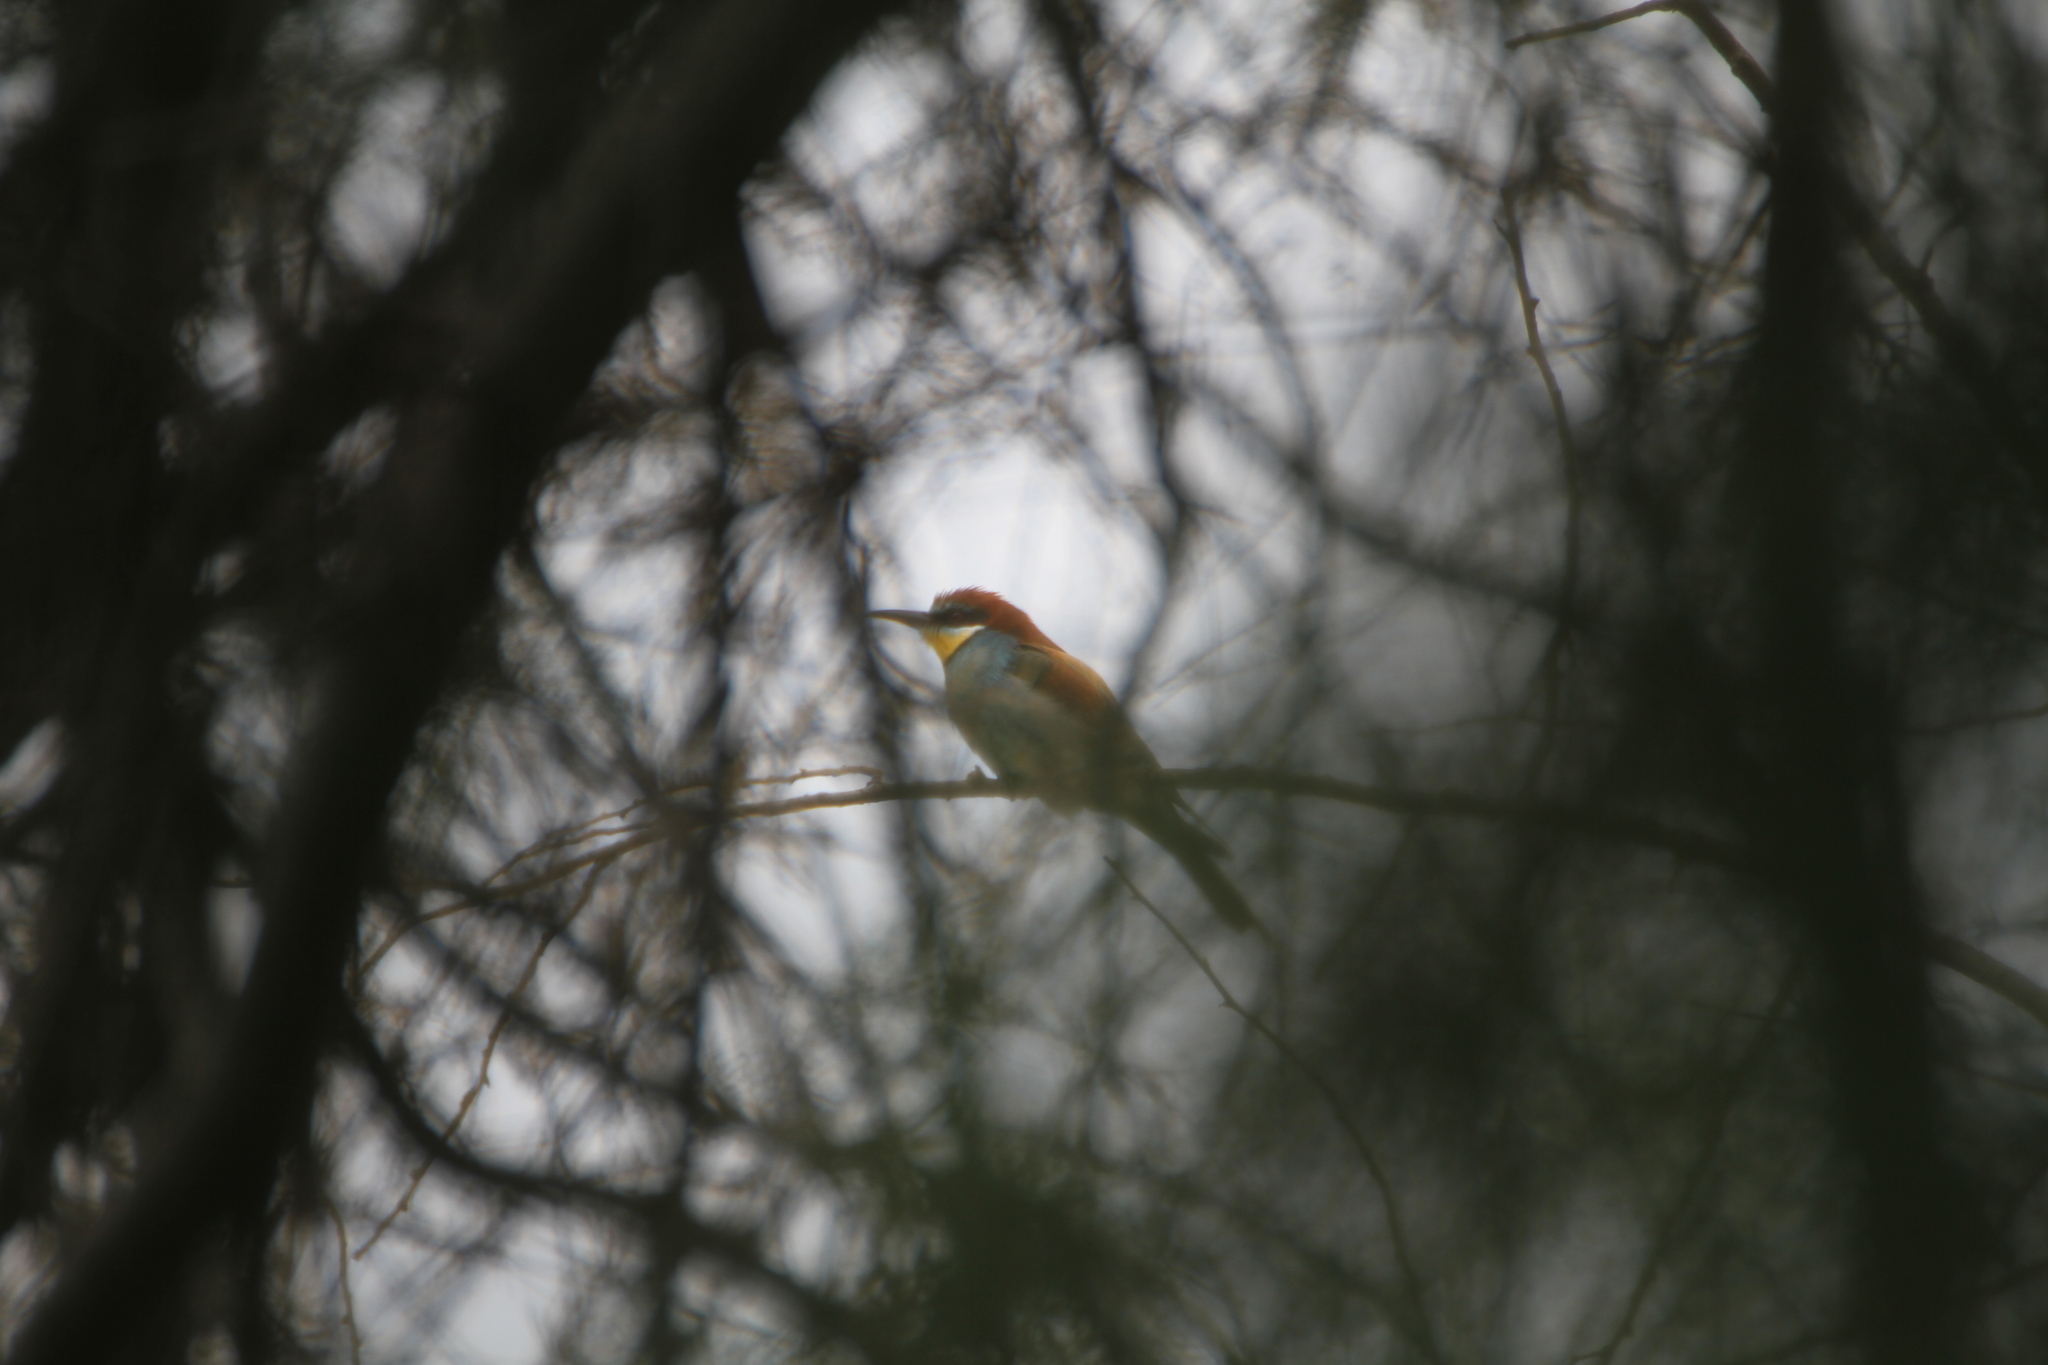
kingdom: Animalia
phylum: Chordata
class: Aves
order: Coraciiformes
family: Meropidae
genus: Merops
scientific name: Merops apiaster
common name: European bee-eater
